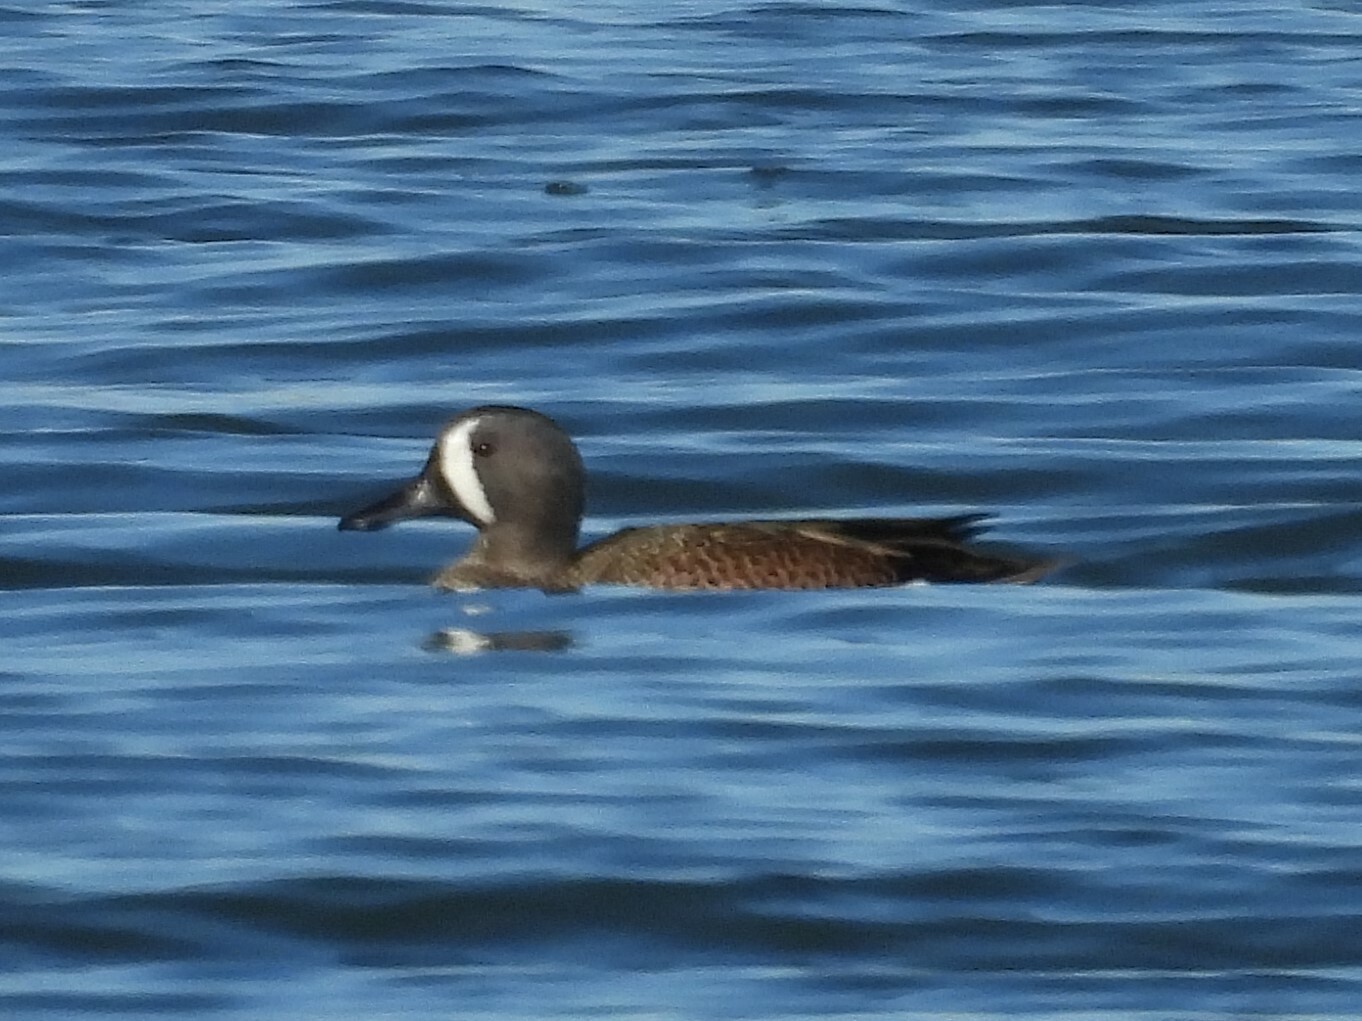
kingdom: Animalia
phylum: Chordata
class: Aves
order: Anseriformes
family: Anatidae
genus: Spatula
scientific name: Spatula discors
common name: Blue-winged teal
